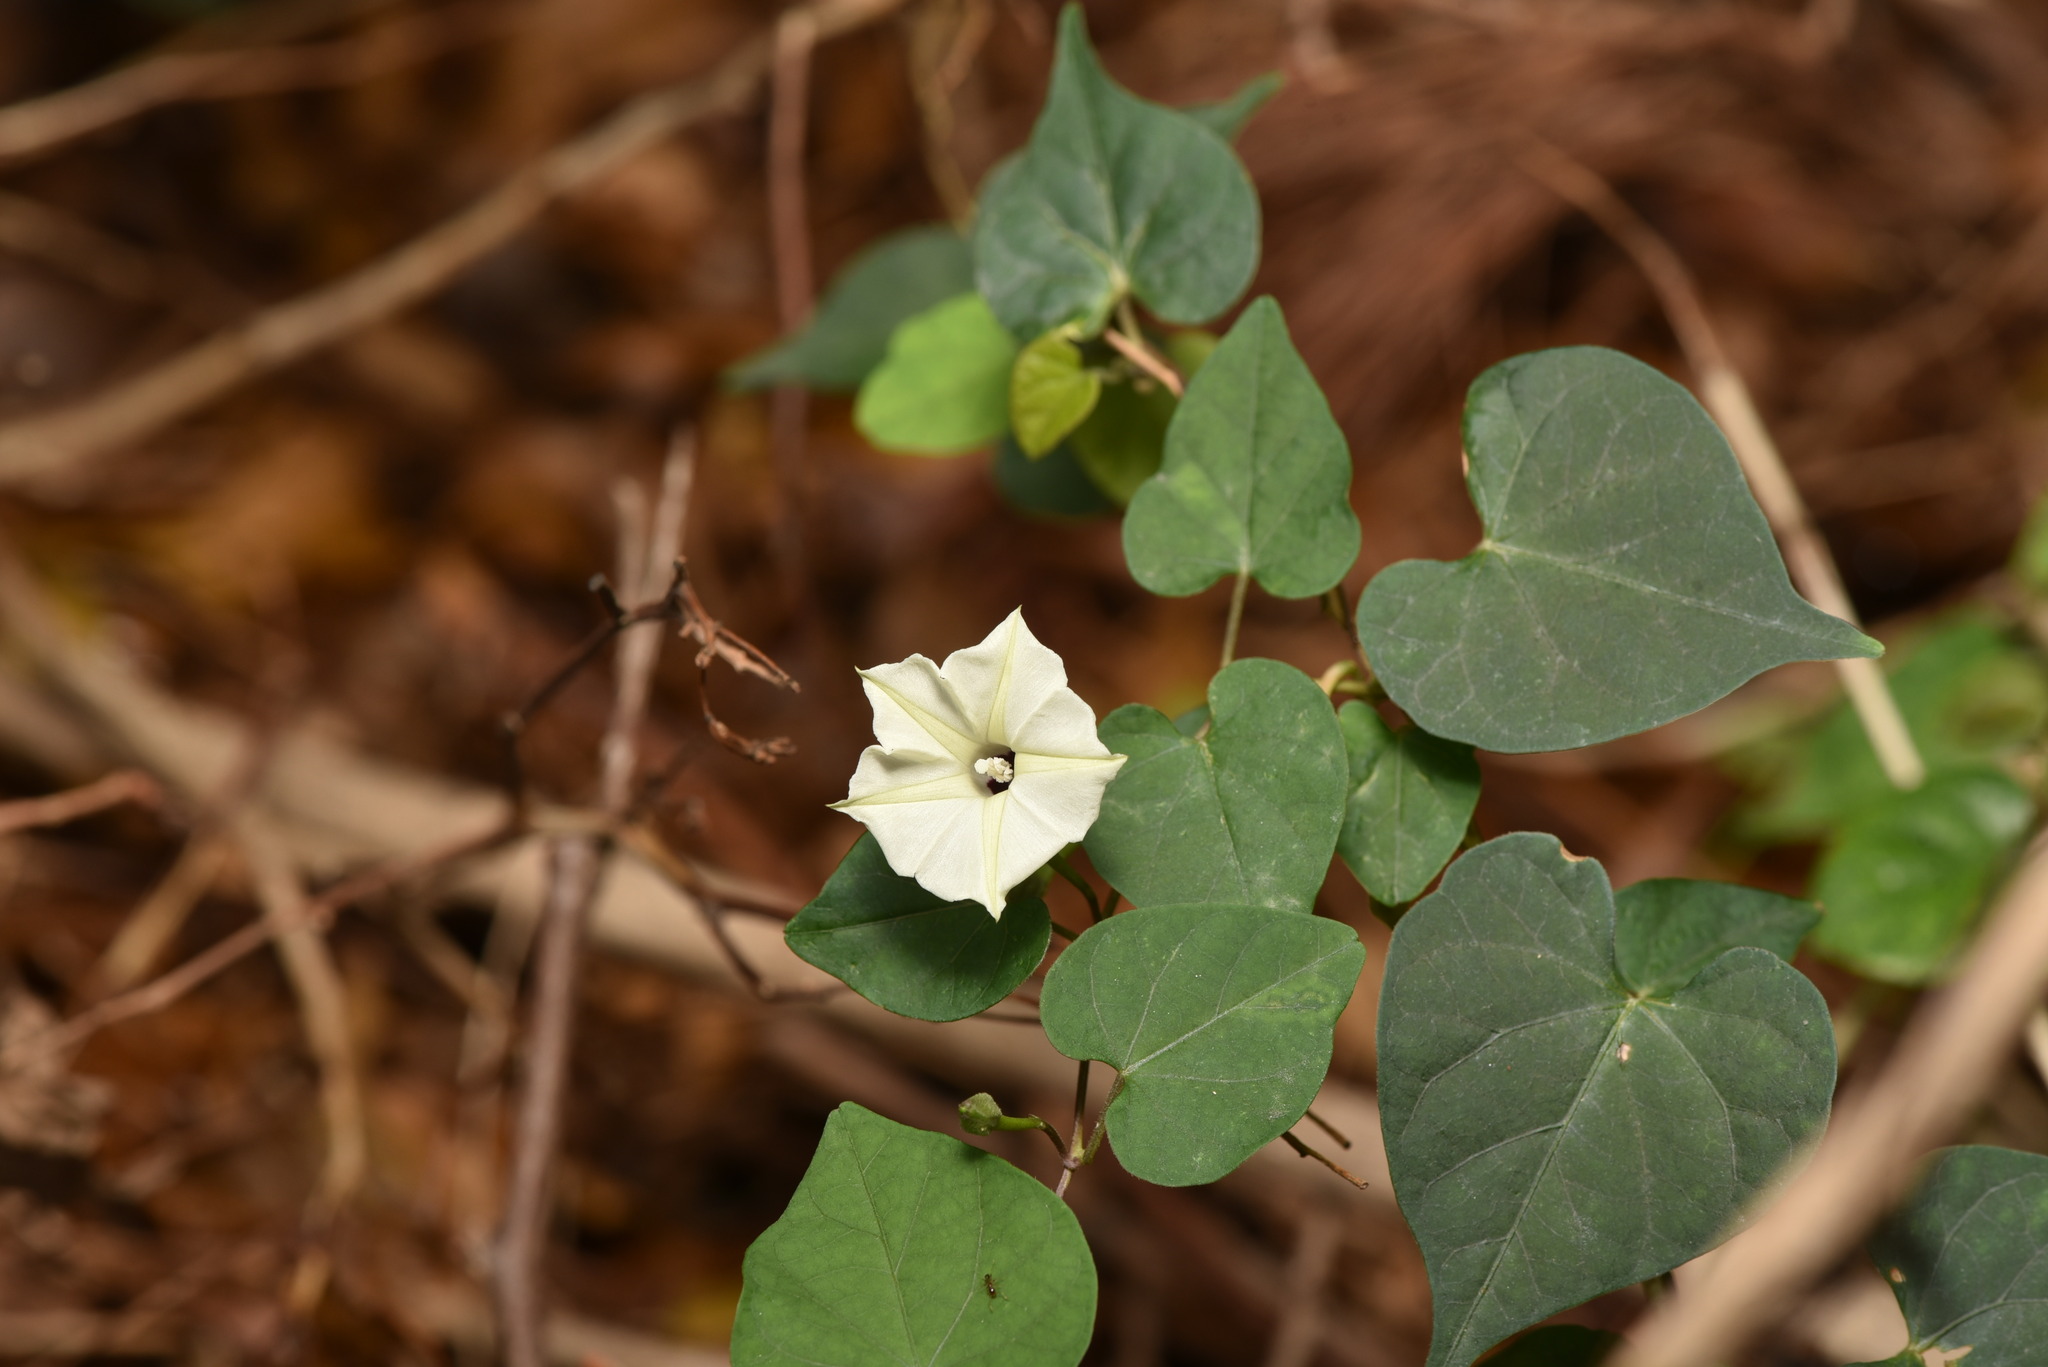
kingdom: Plantae
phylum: Tracheophyta
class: Magnoliopsida
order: Solanales
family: Convolvulaceae
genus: Ipomoea
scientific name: Ipomoea obscura
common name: Obscure morning-glory
